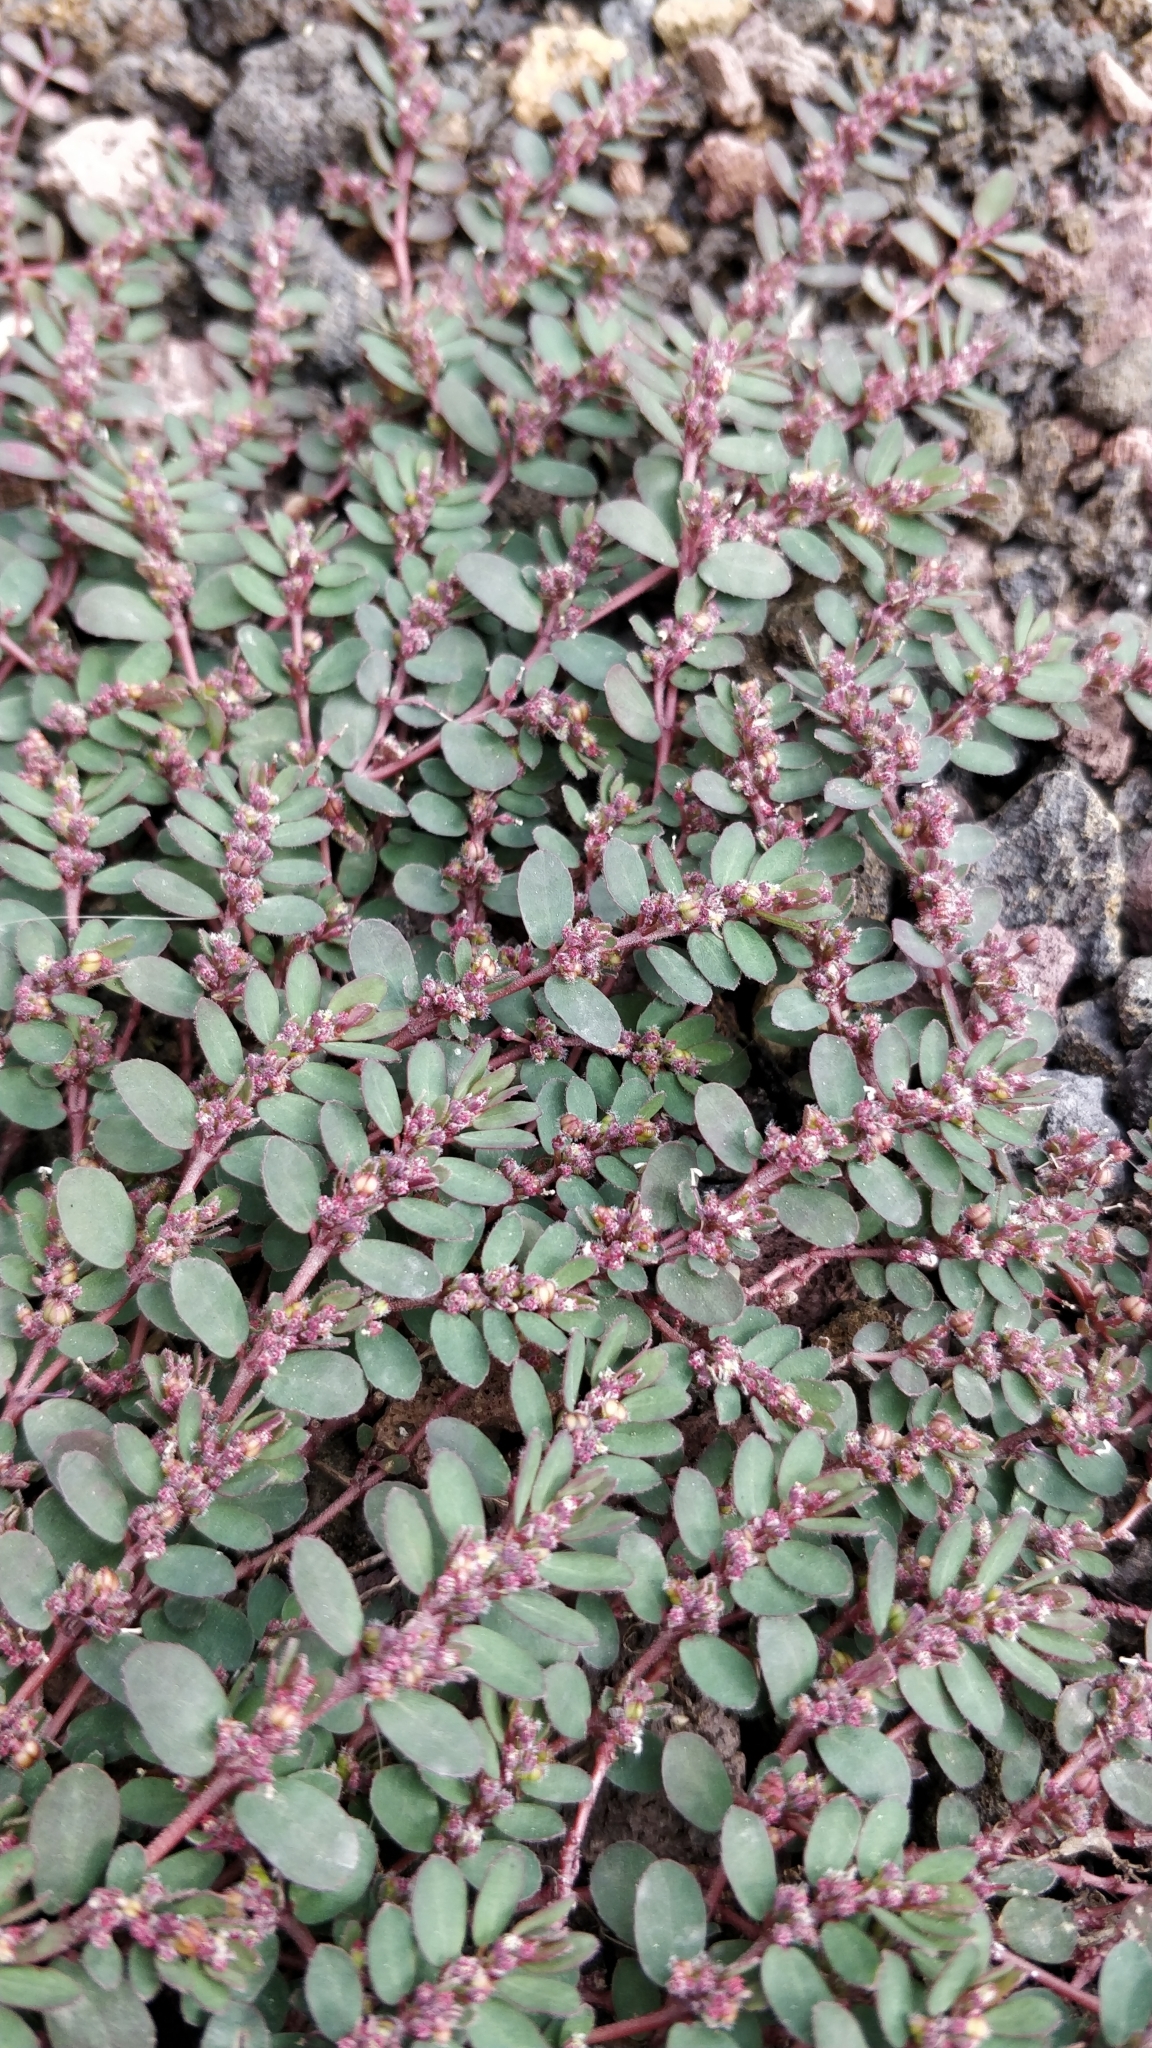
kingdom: Plantae
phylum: Tracheophyta
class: Magnoliopsida
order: Malpighiales
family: Euphorbiaceae
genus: Euphorbia
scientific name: Euphorbia prostrata
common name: Prostrate sandmat
